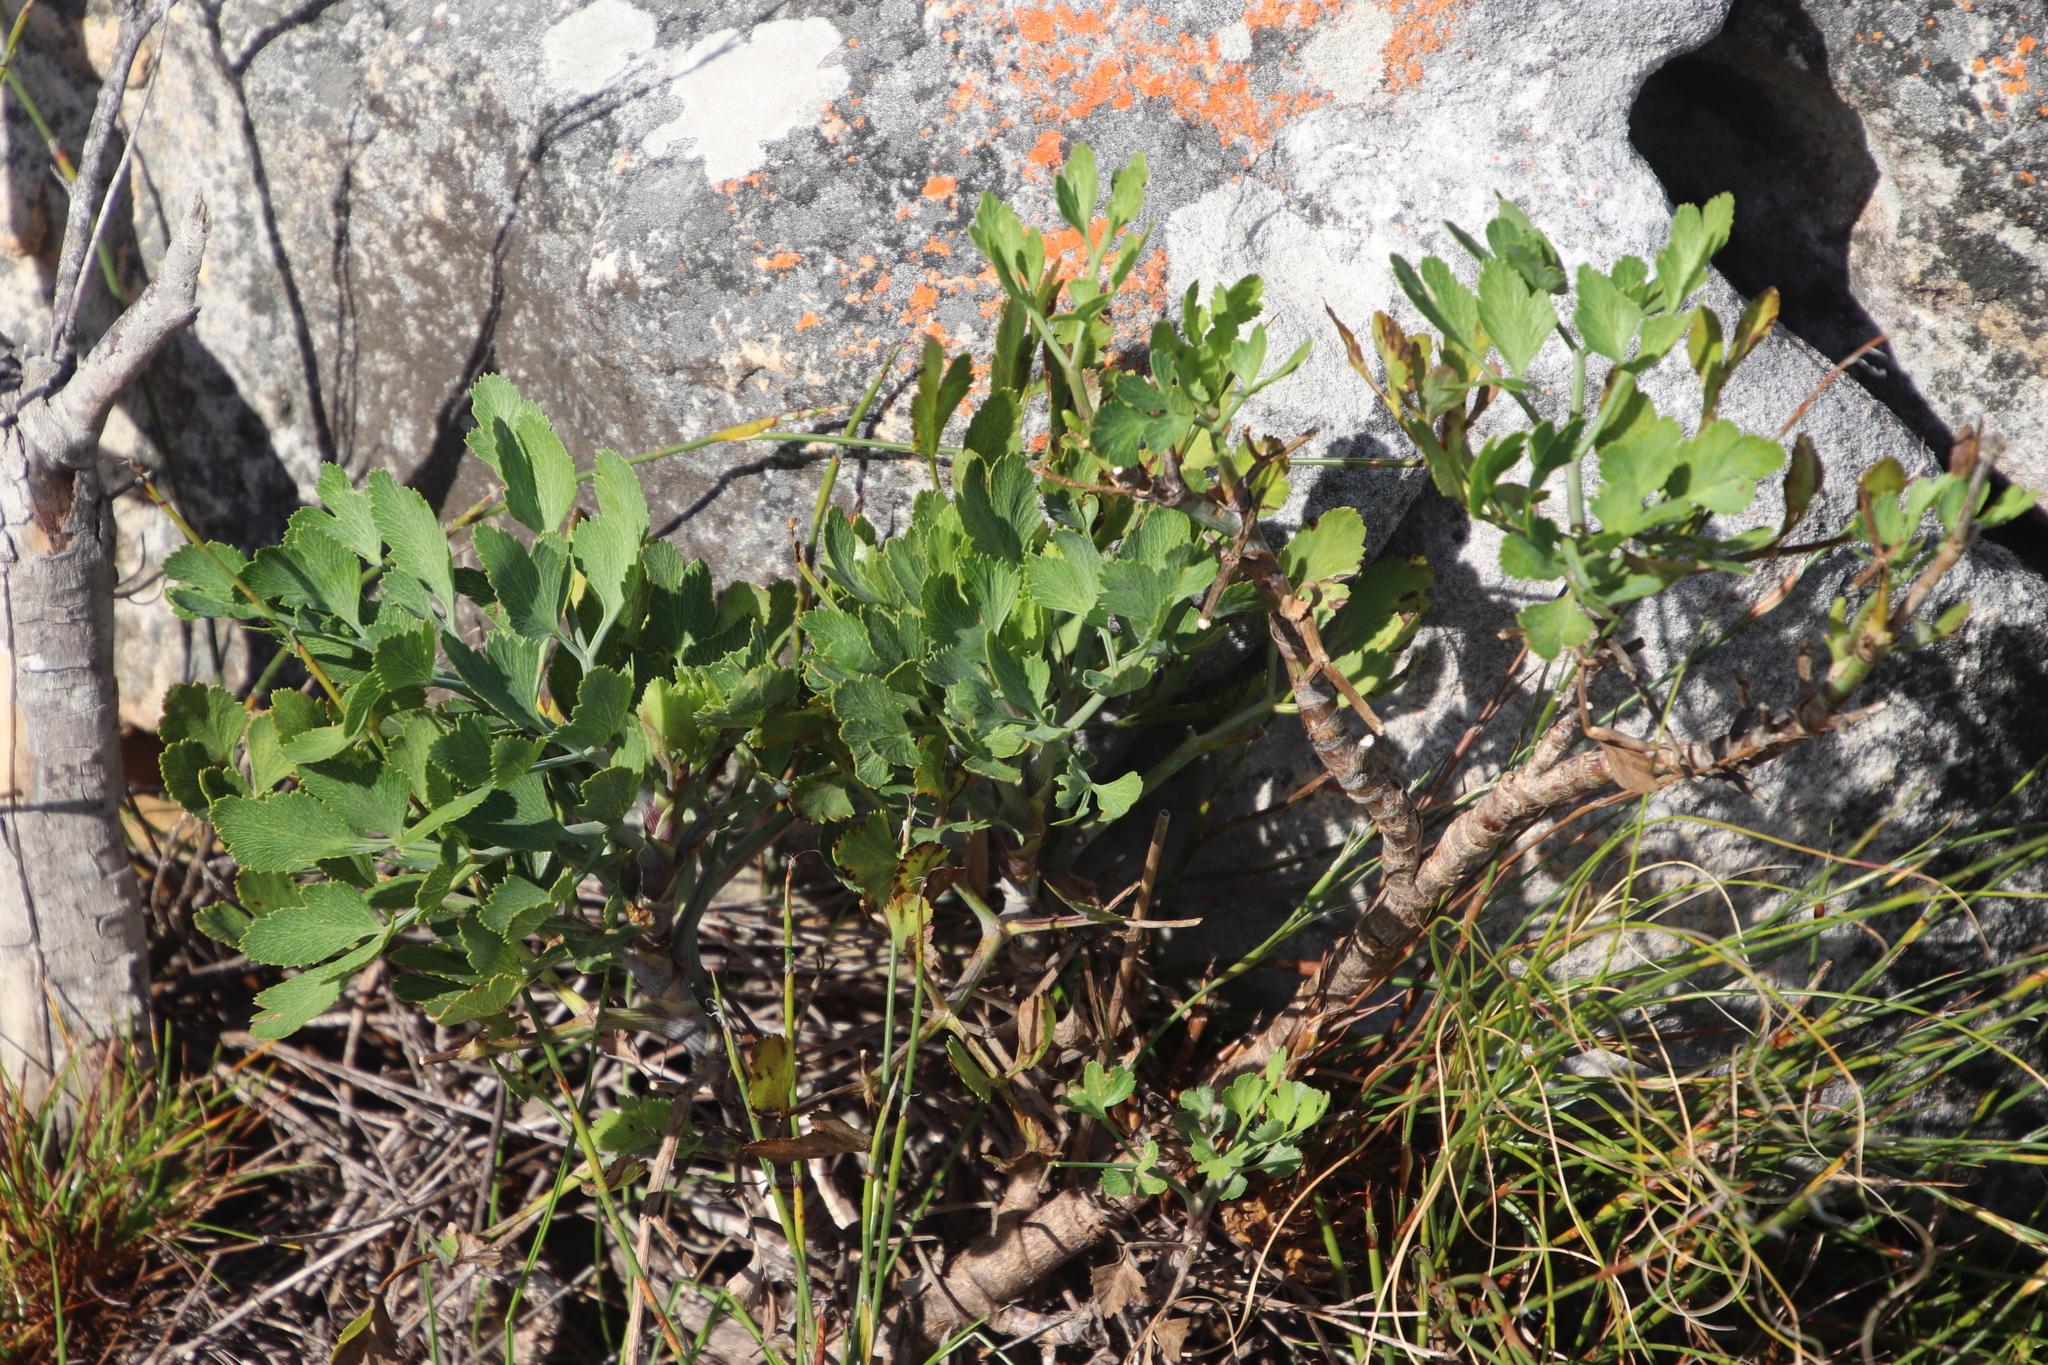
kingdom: Plantae
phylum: Tracheophyta
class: Magnoliopsida
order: Apiales
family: Apiaceae
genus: Notobubon
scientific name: Notobubon galbanum
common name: Blisterbush
